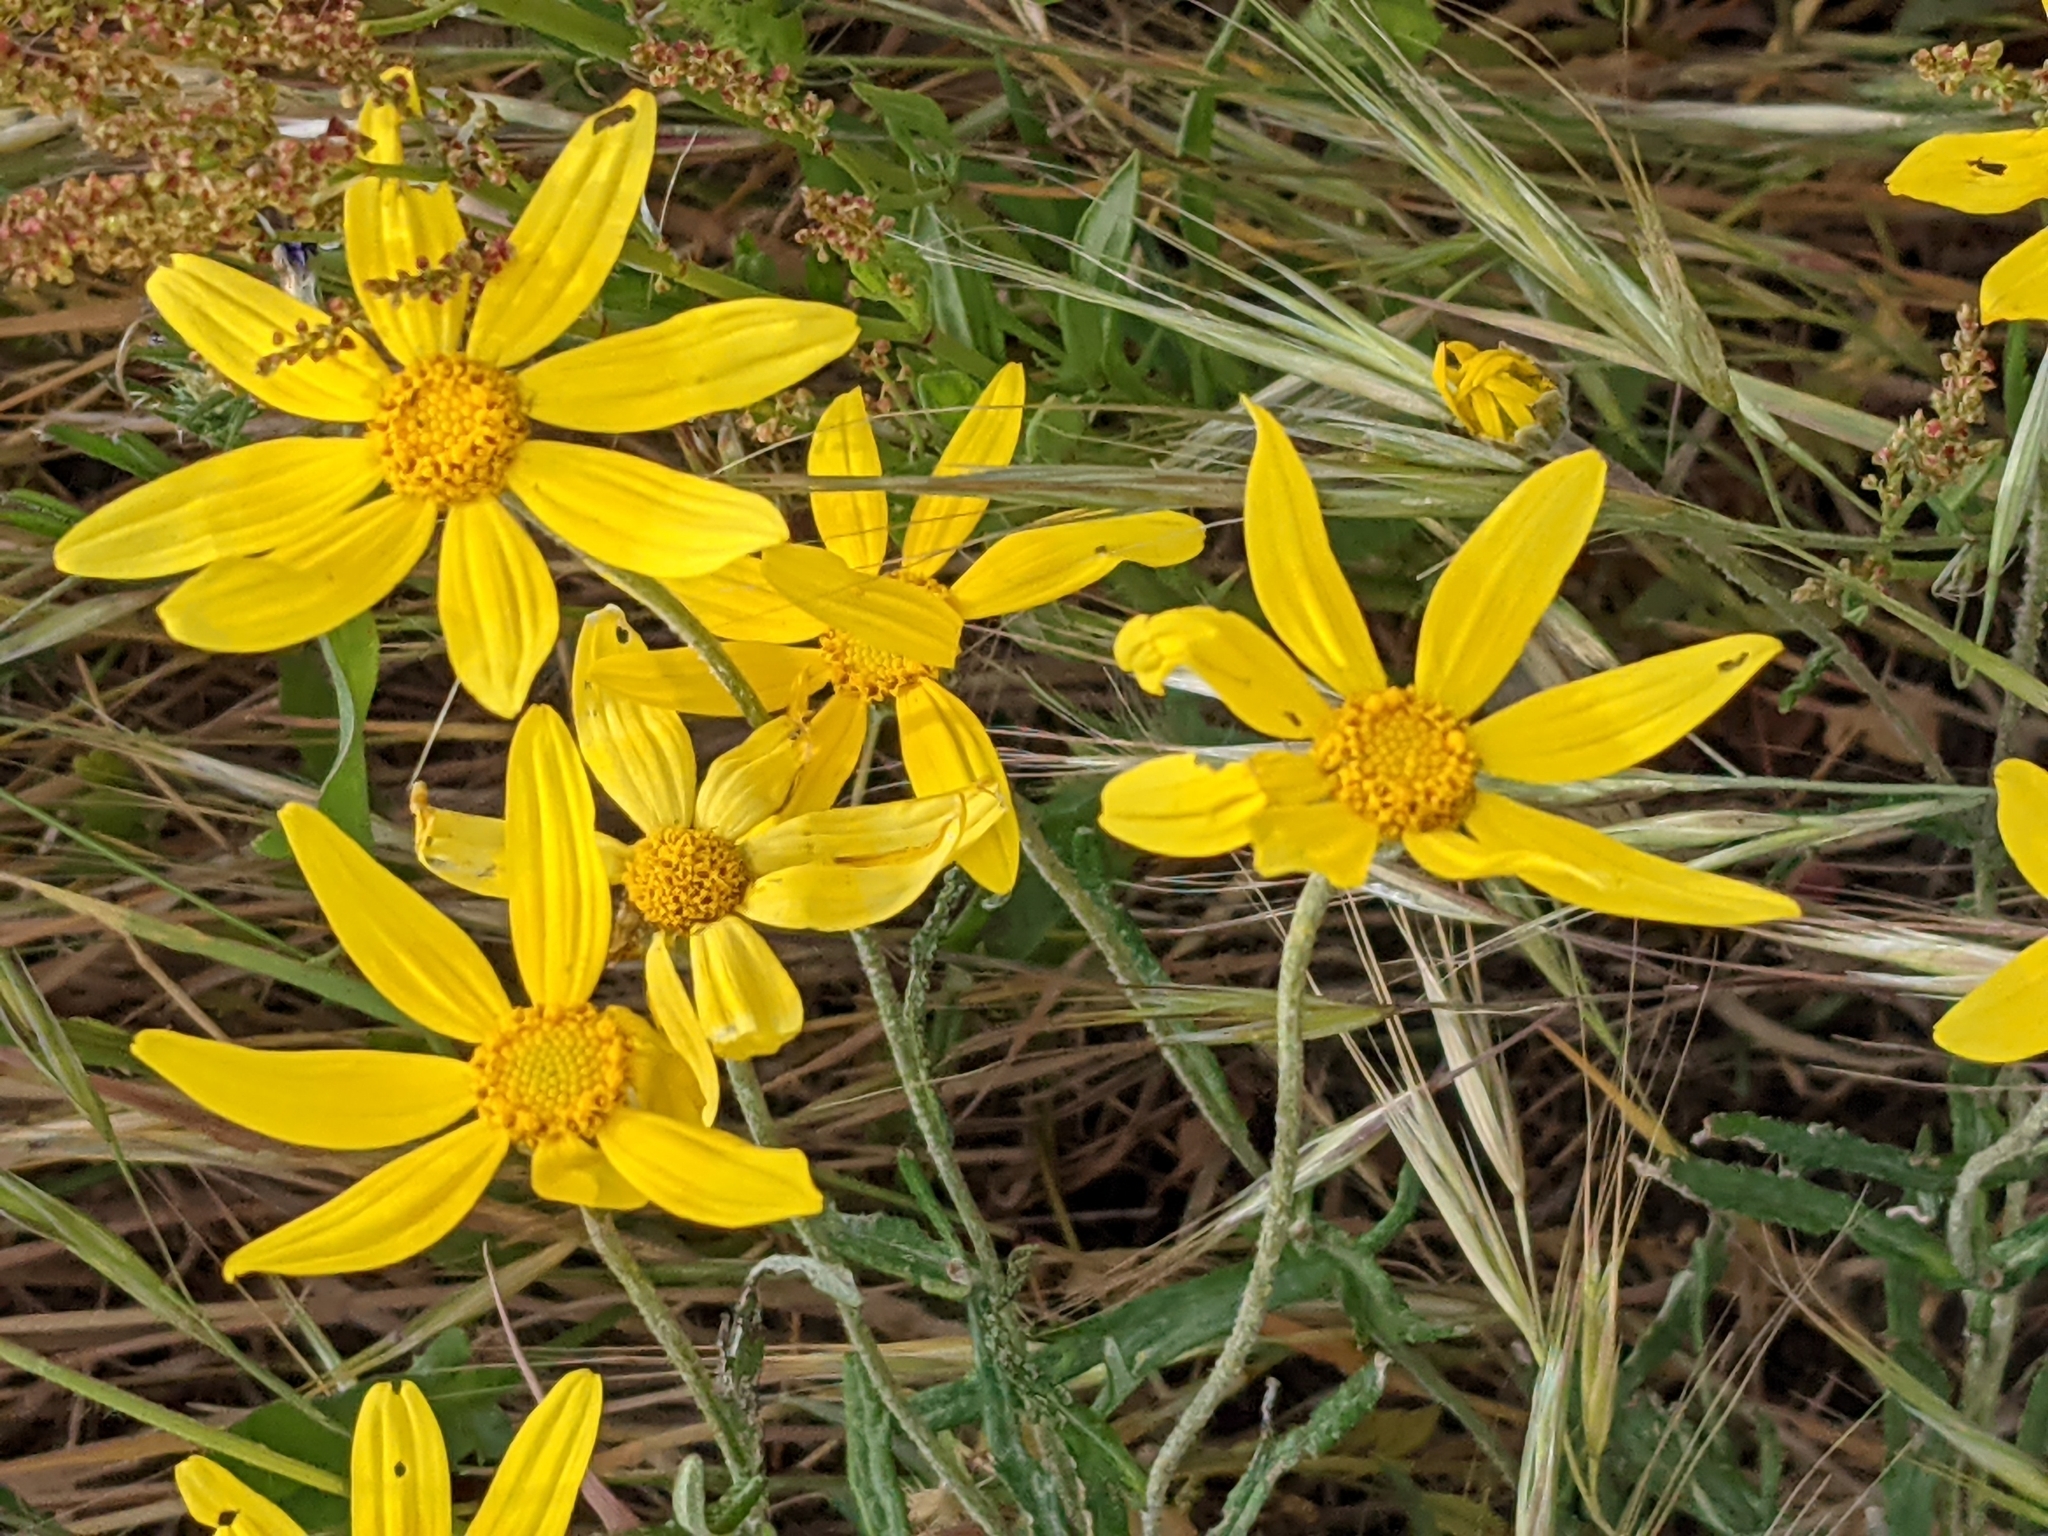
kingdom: Plantae
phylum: Tracheophyta
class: Magnoliopsida
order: Asterales
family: Asteraceae
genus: Eriophyllum
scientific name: Eriophyllum lanatum
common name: Common woolly-sunflower
